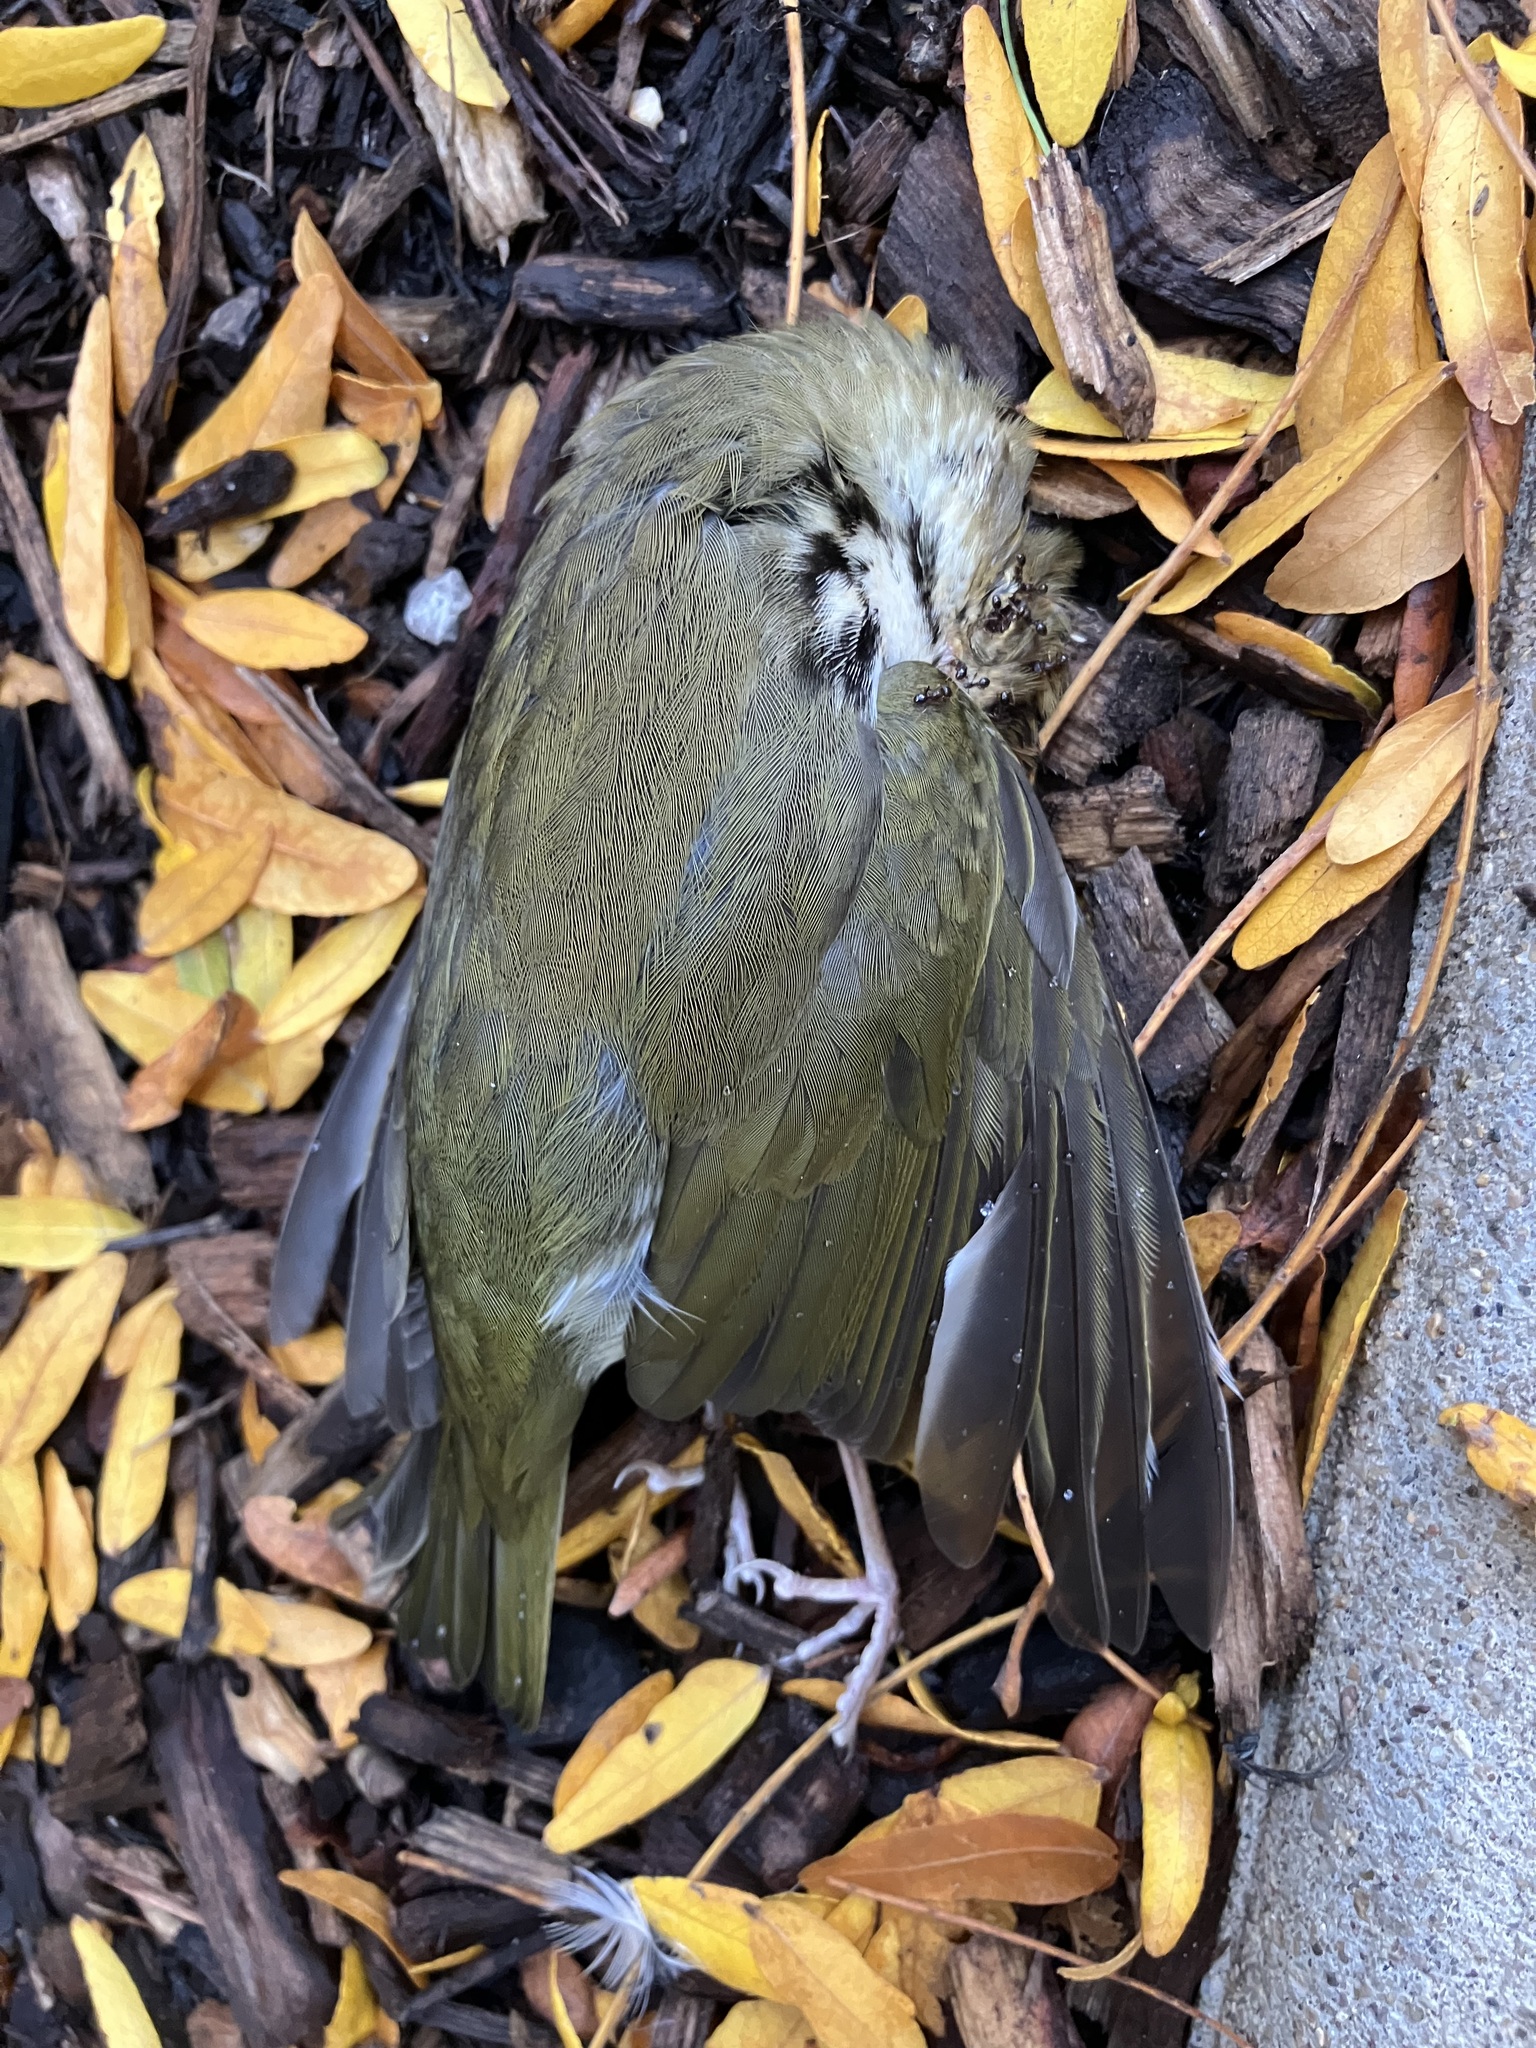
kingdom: Animalia
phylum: Chordata
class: Aves
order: Passeriformes
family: Parulidae
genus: Seiurus
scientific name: Seiurus aurocapilla
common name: Ovenbird
